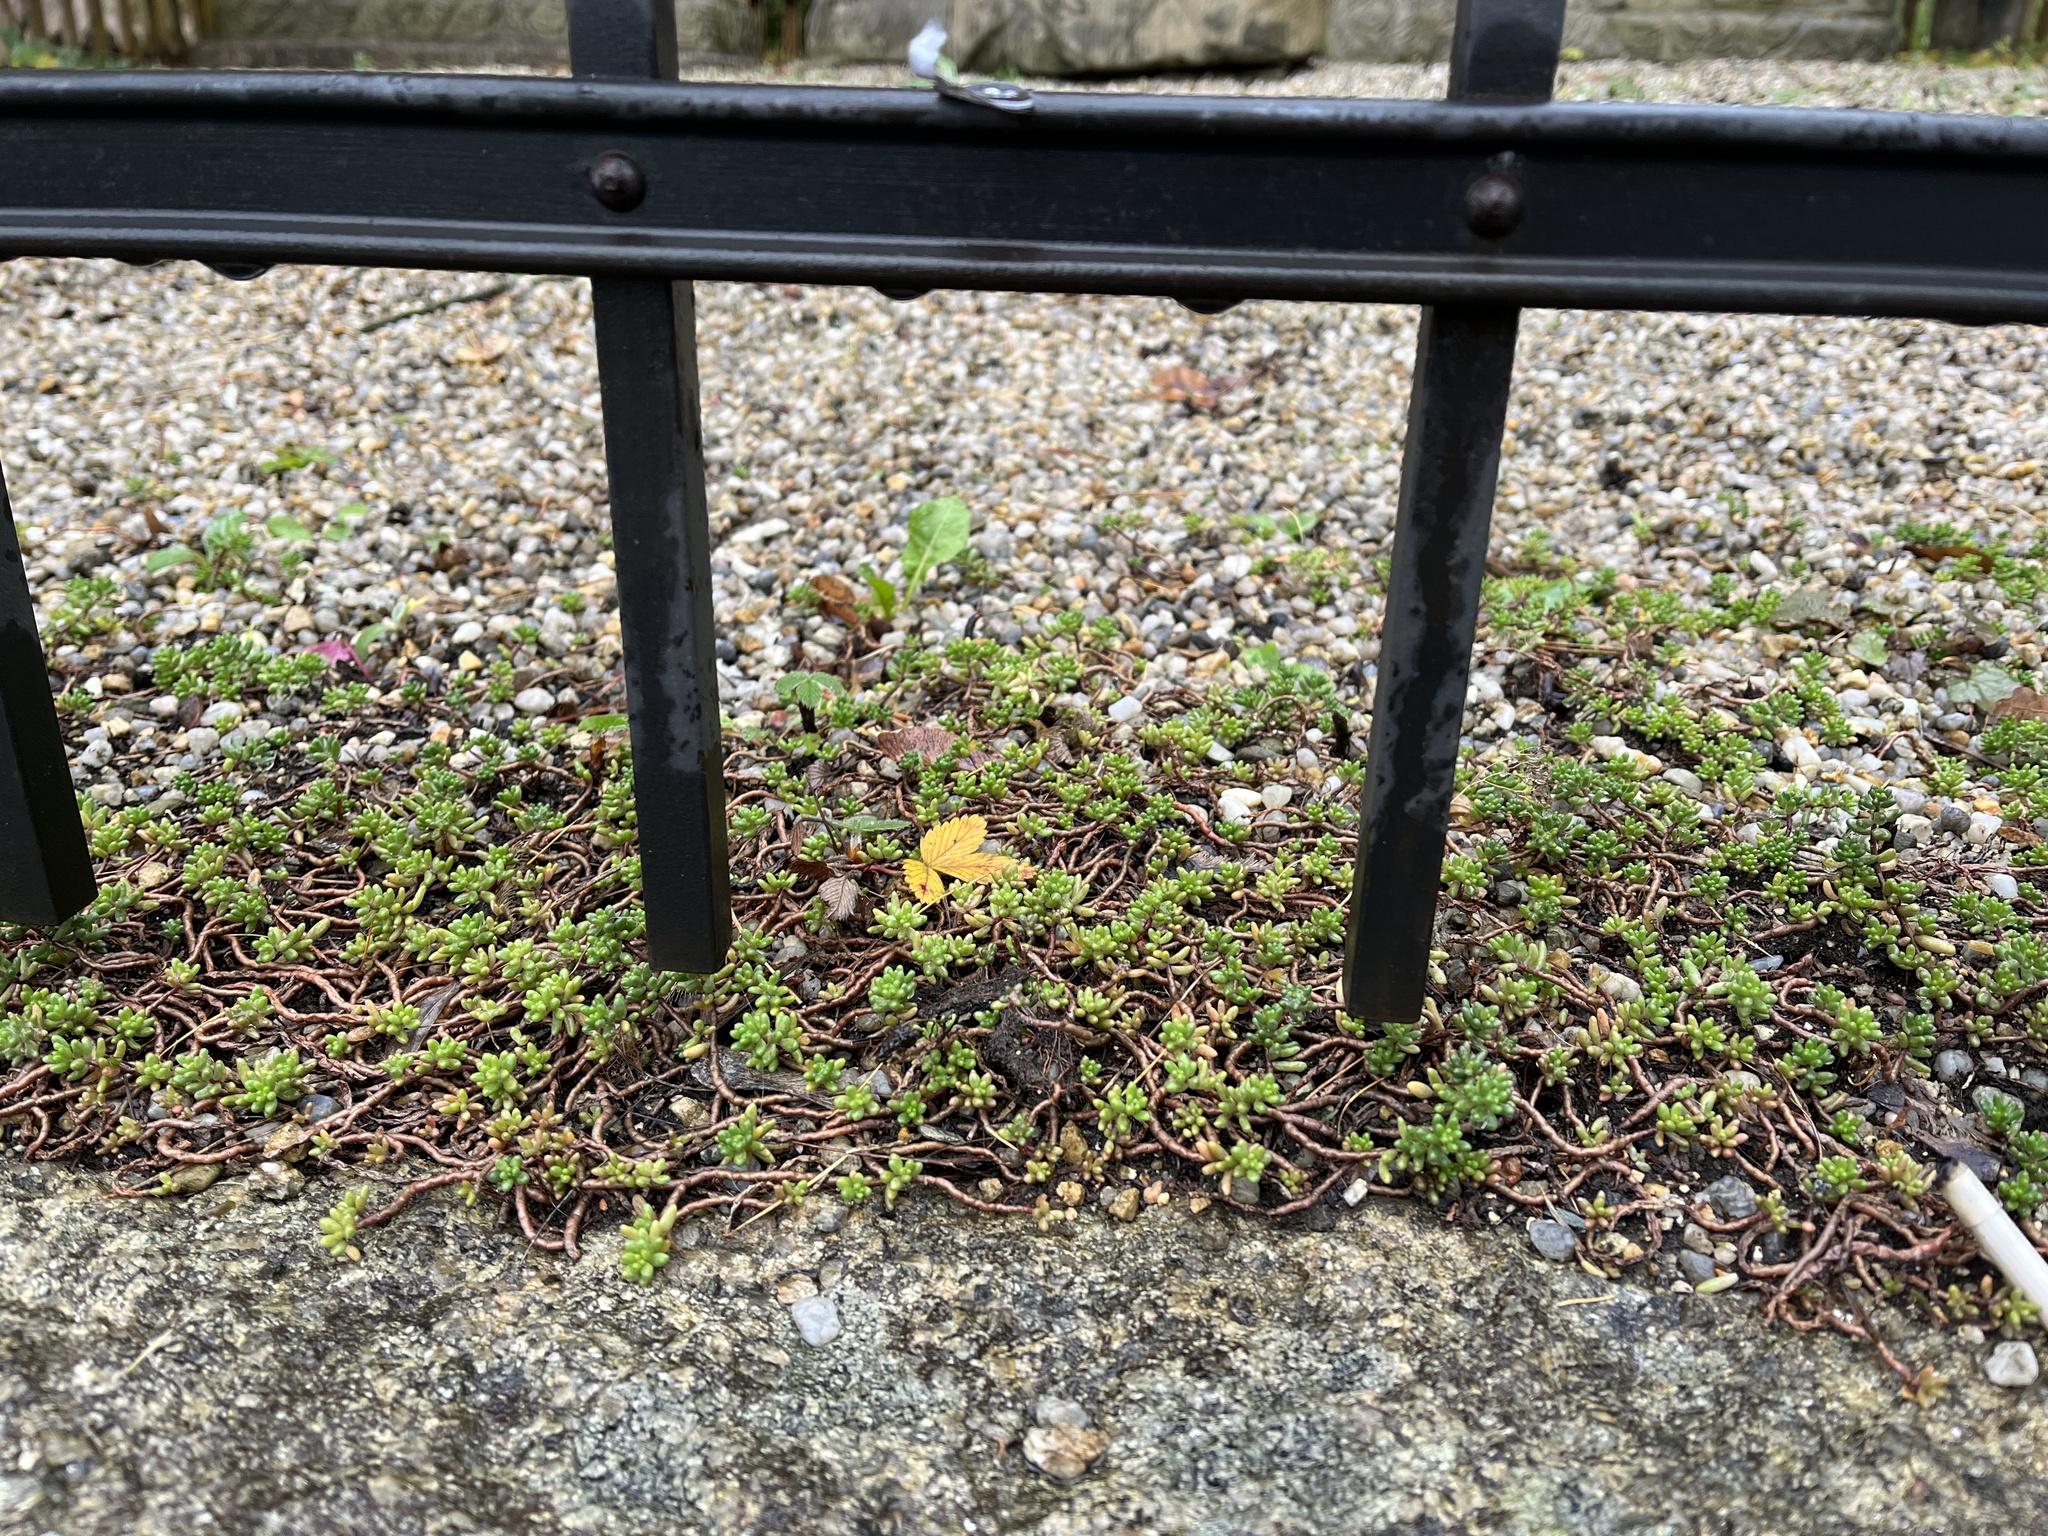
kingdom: Plantae
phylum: Tracheophyta
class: Magnoliopsida
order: Saxifragales
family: Crassulaceae
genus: Sedum
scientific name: Sedum album
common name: White stonecrop
